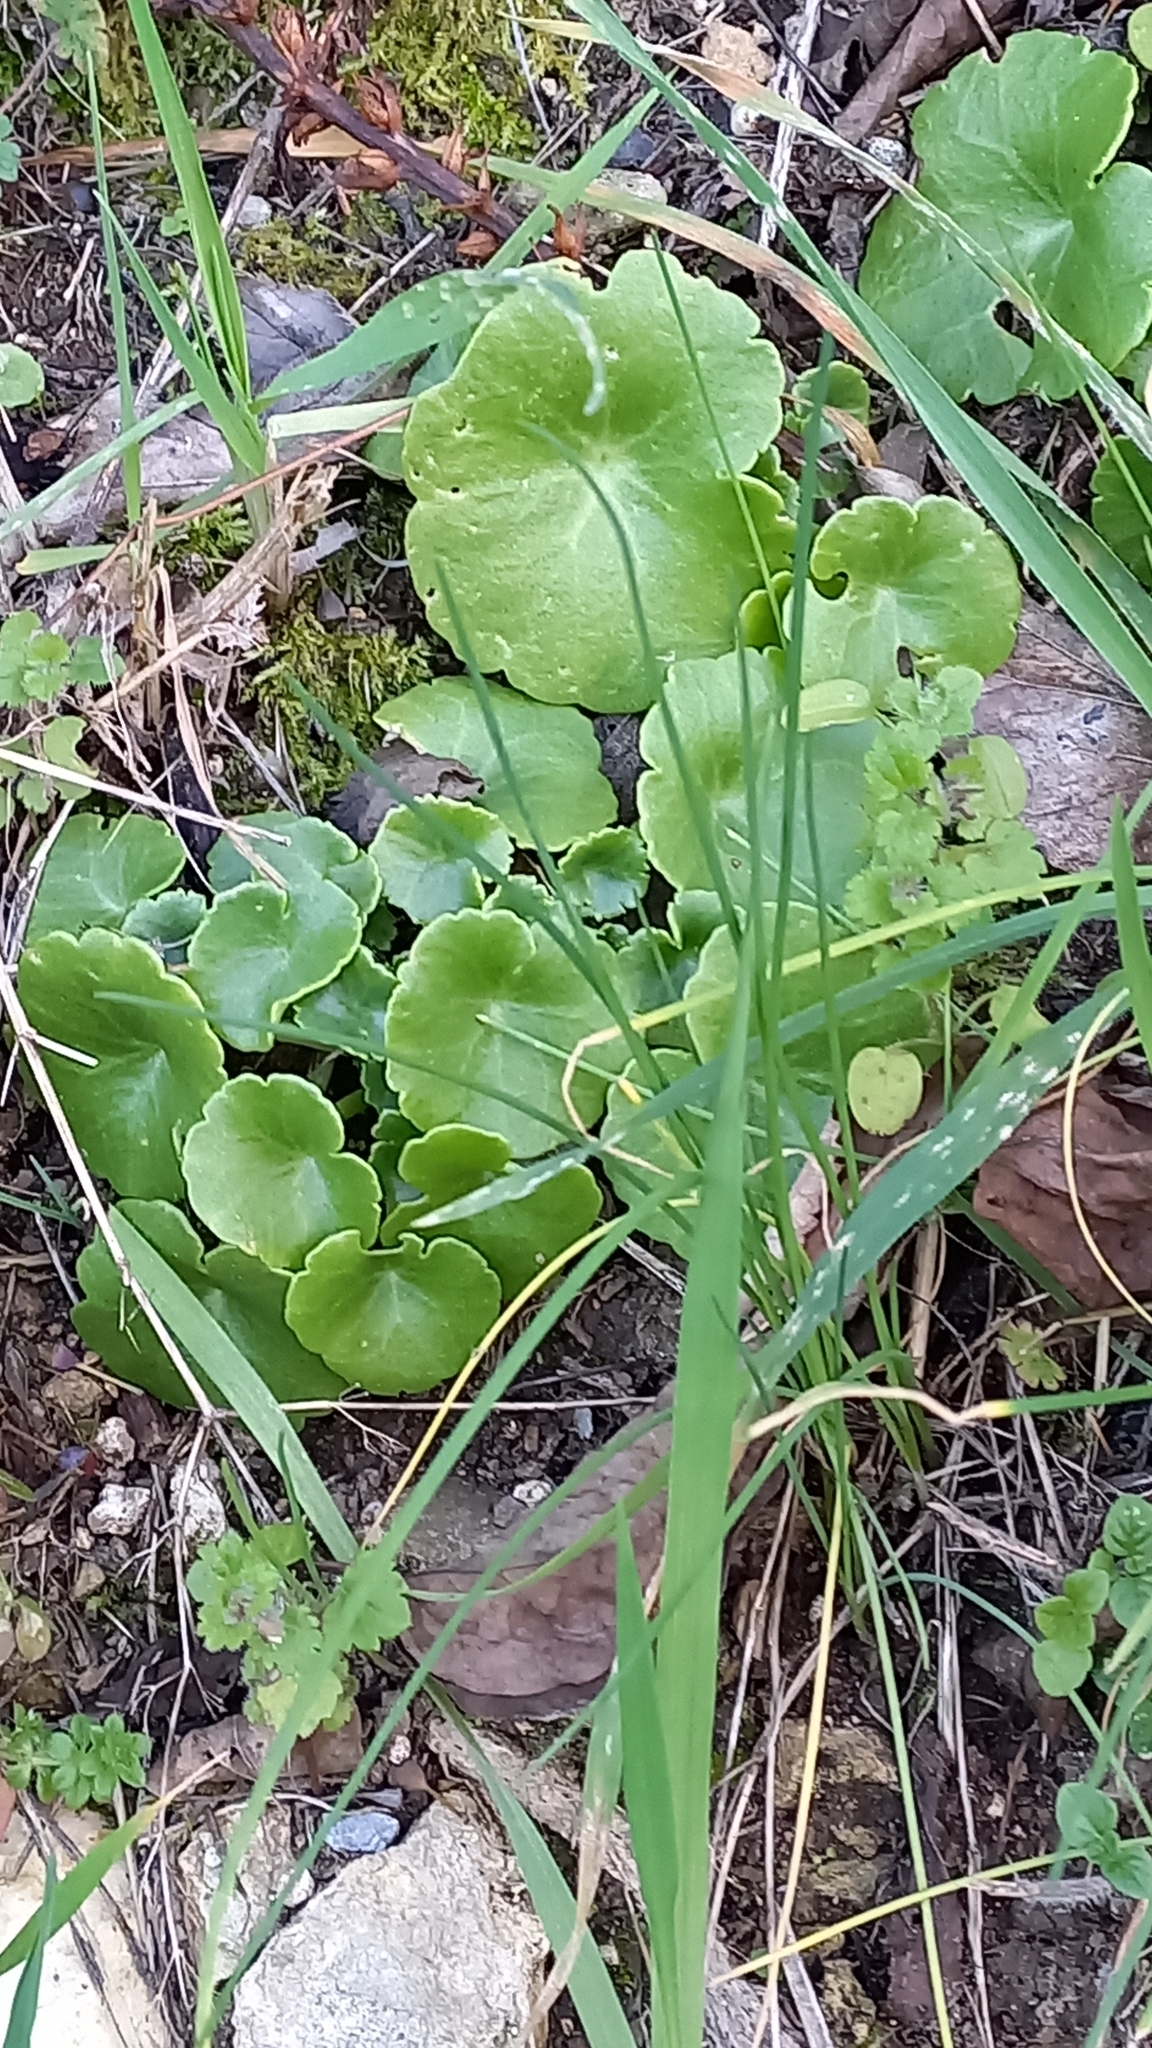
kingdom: Plantae
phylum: Tracheophyta
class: Magnoliopsida
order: Saxifragales
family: Crassulaceae
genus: Umbilicus
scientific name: Umbilicus rupestris
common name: Navelwort
